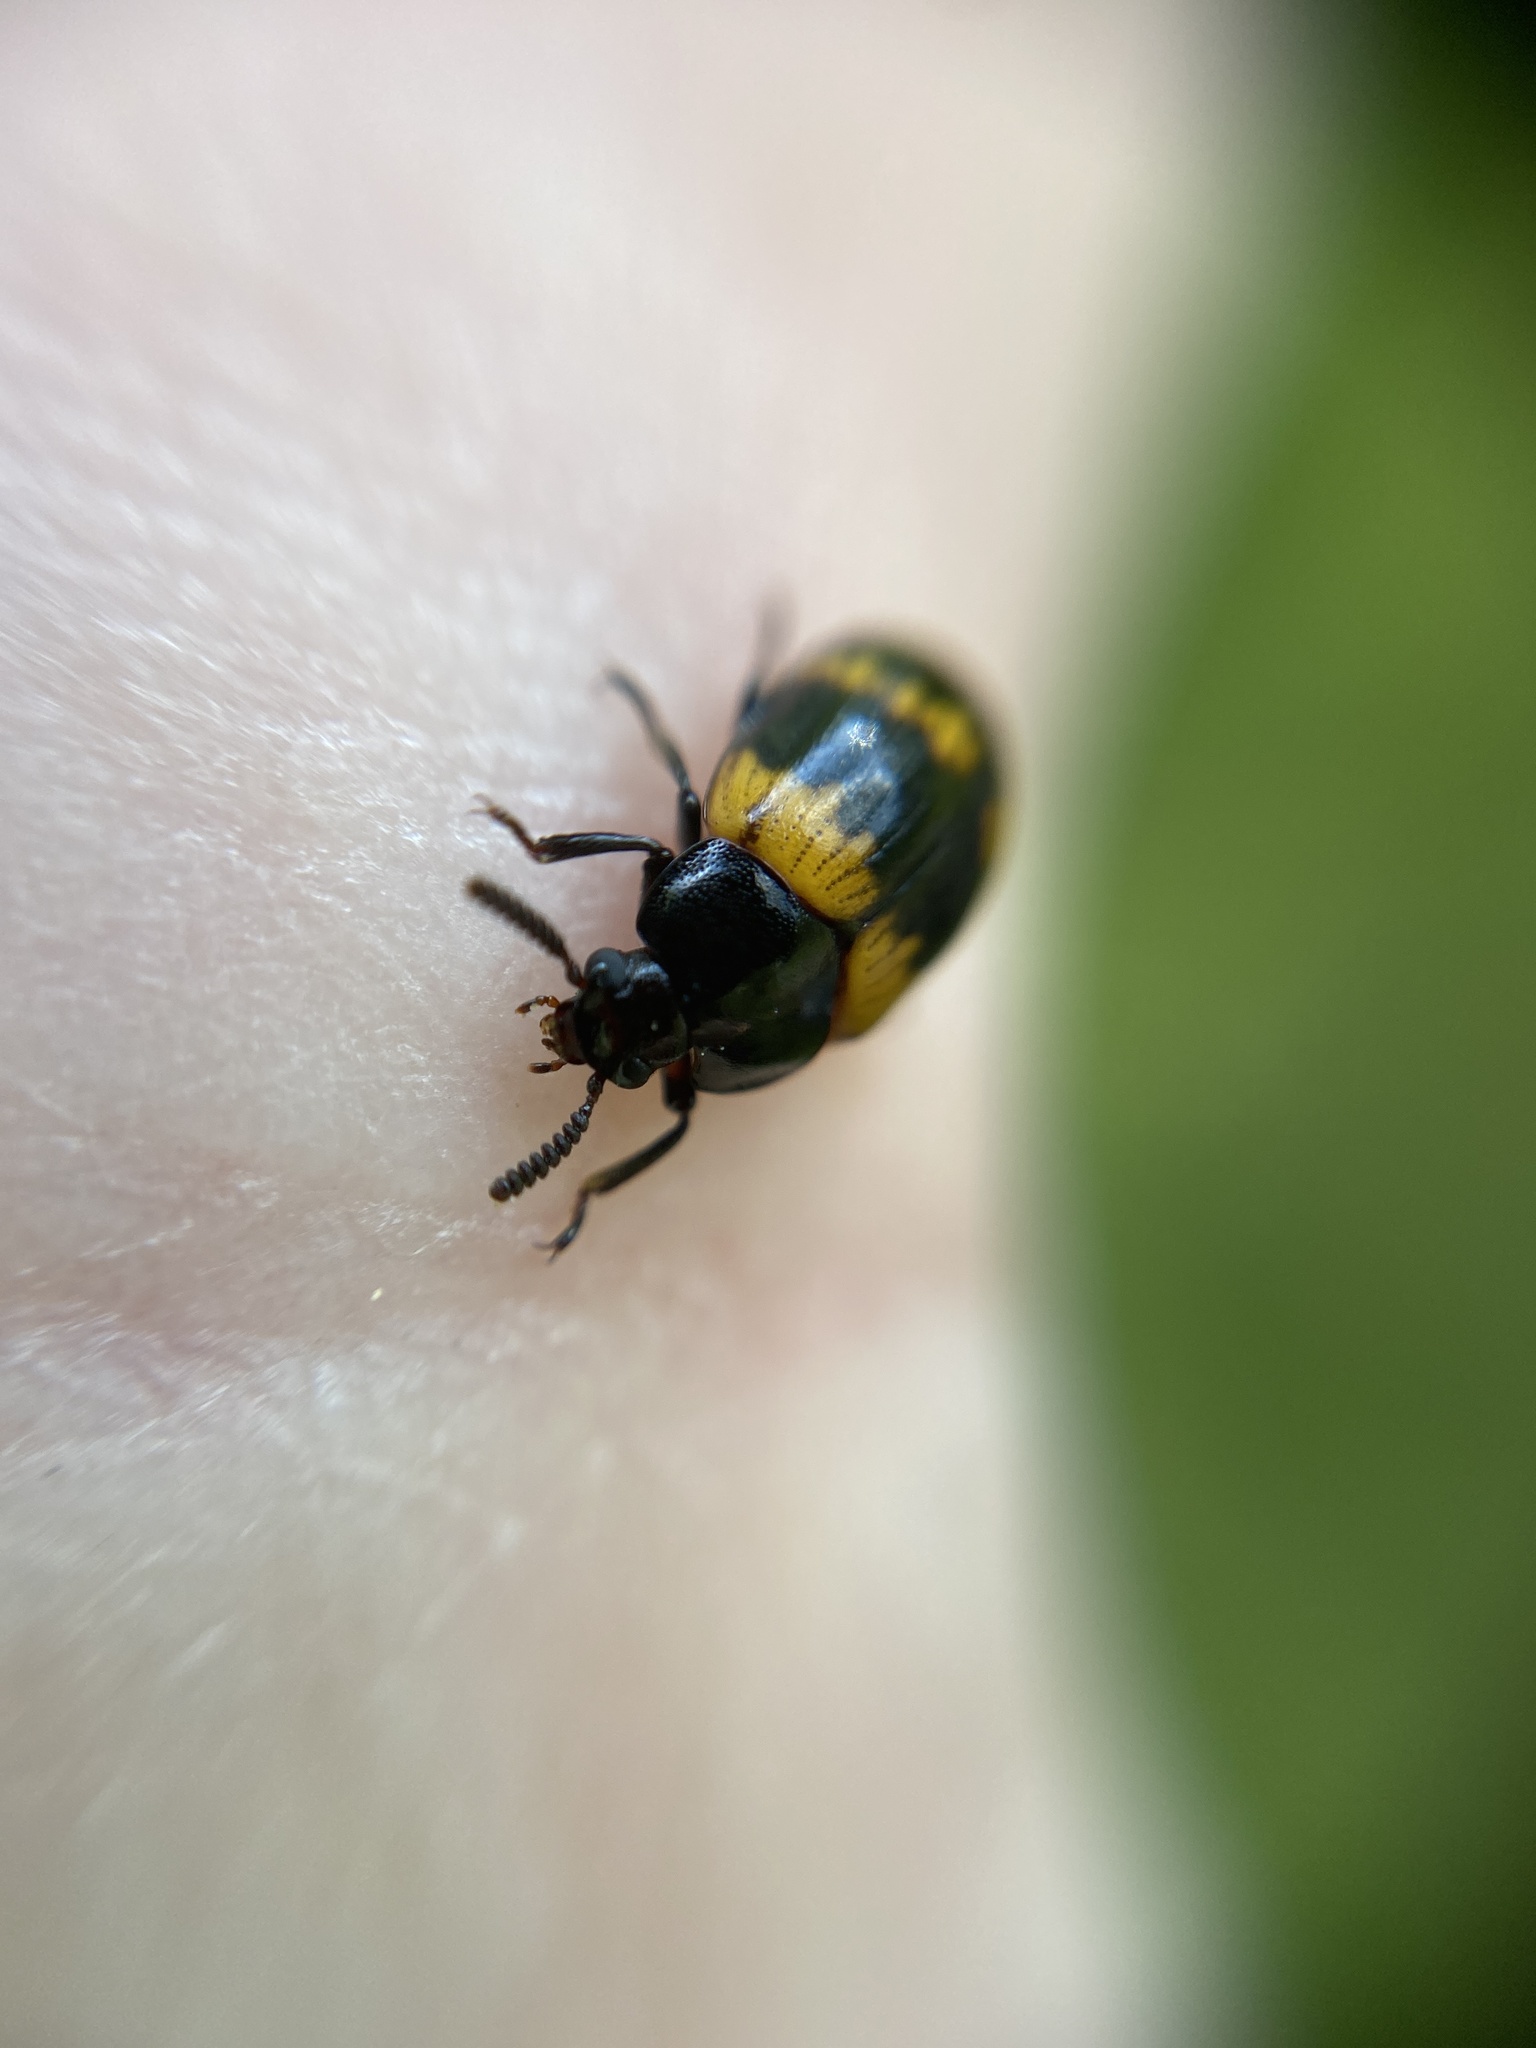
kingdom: Animalia
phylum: Arthropoda
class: Insecta
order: Coleoptera
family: Tenebrionidae
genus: Diaperis
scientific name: Diaperis boleti
